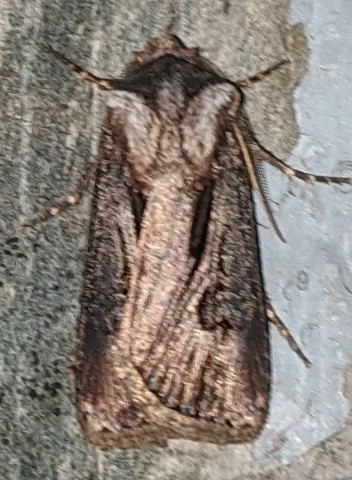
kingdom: Animalia
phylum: Arthropoda
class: Insecta
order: Lepidoptera
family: Noctuidae
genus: Agrotis
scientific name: Agrotis venerabilis
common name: Venerable dart
